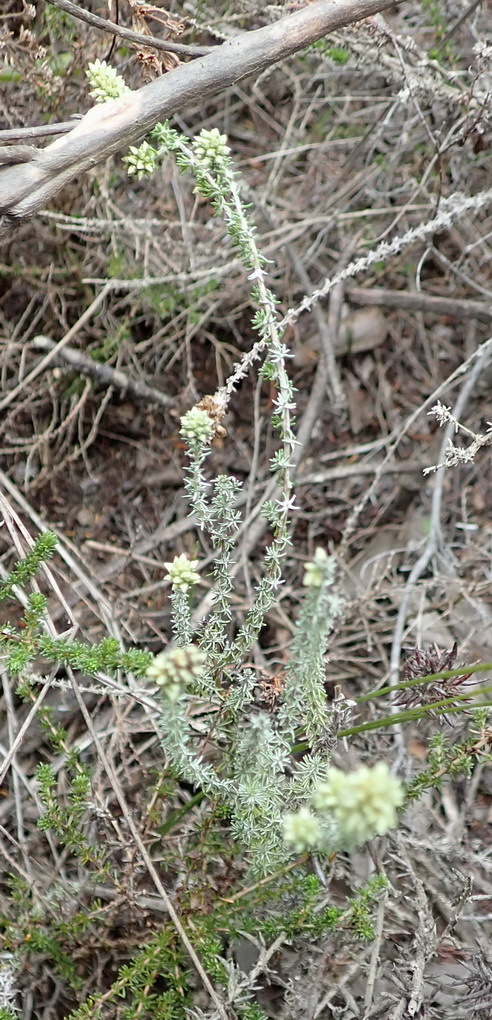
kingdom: Plantae
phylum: Tracheophyta
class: Magnoliopsida
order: Asterales
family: Asteraceae
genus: Ifloga
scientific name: Ifloga repens
